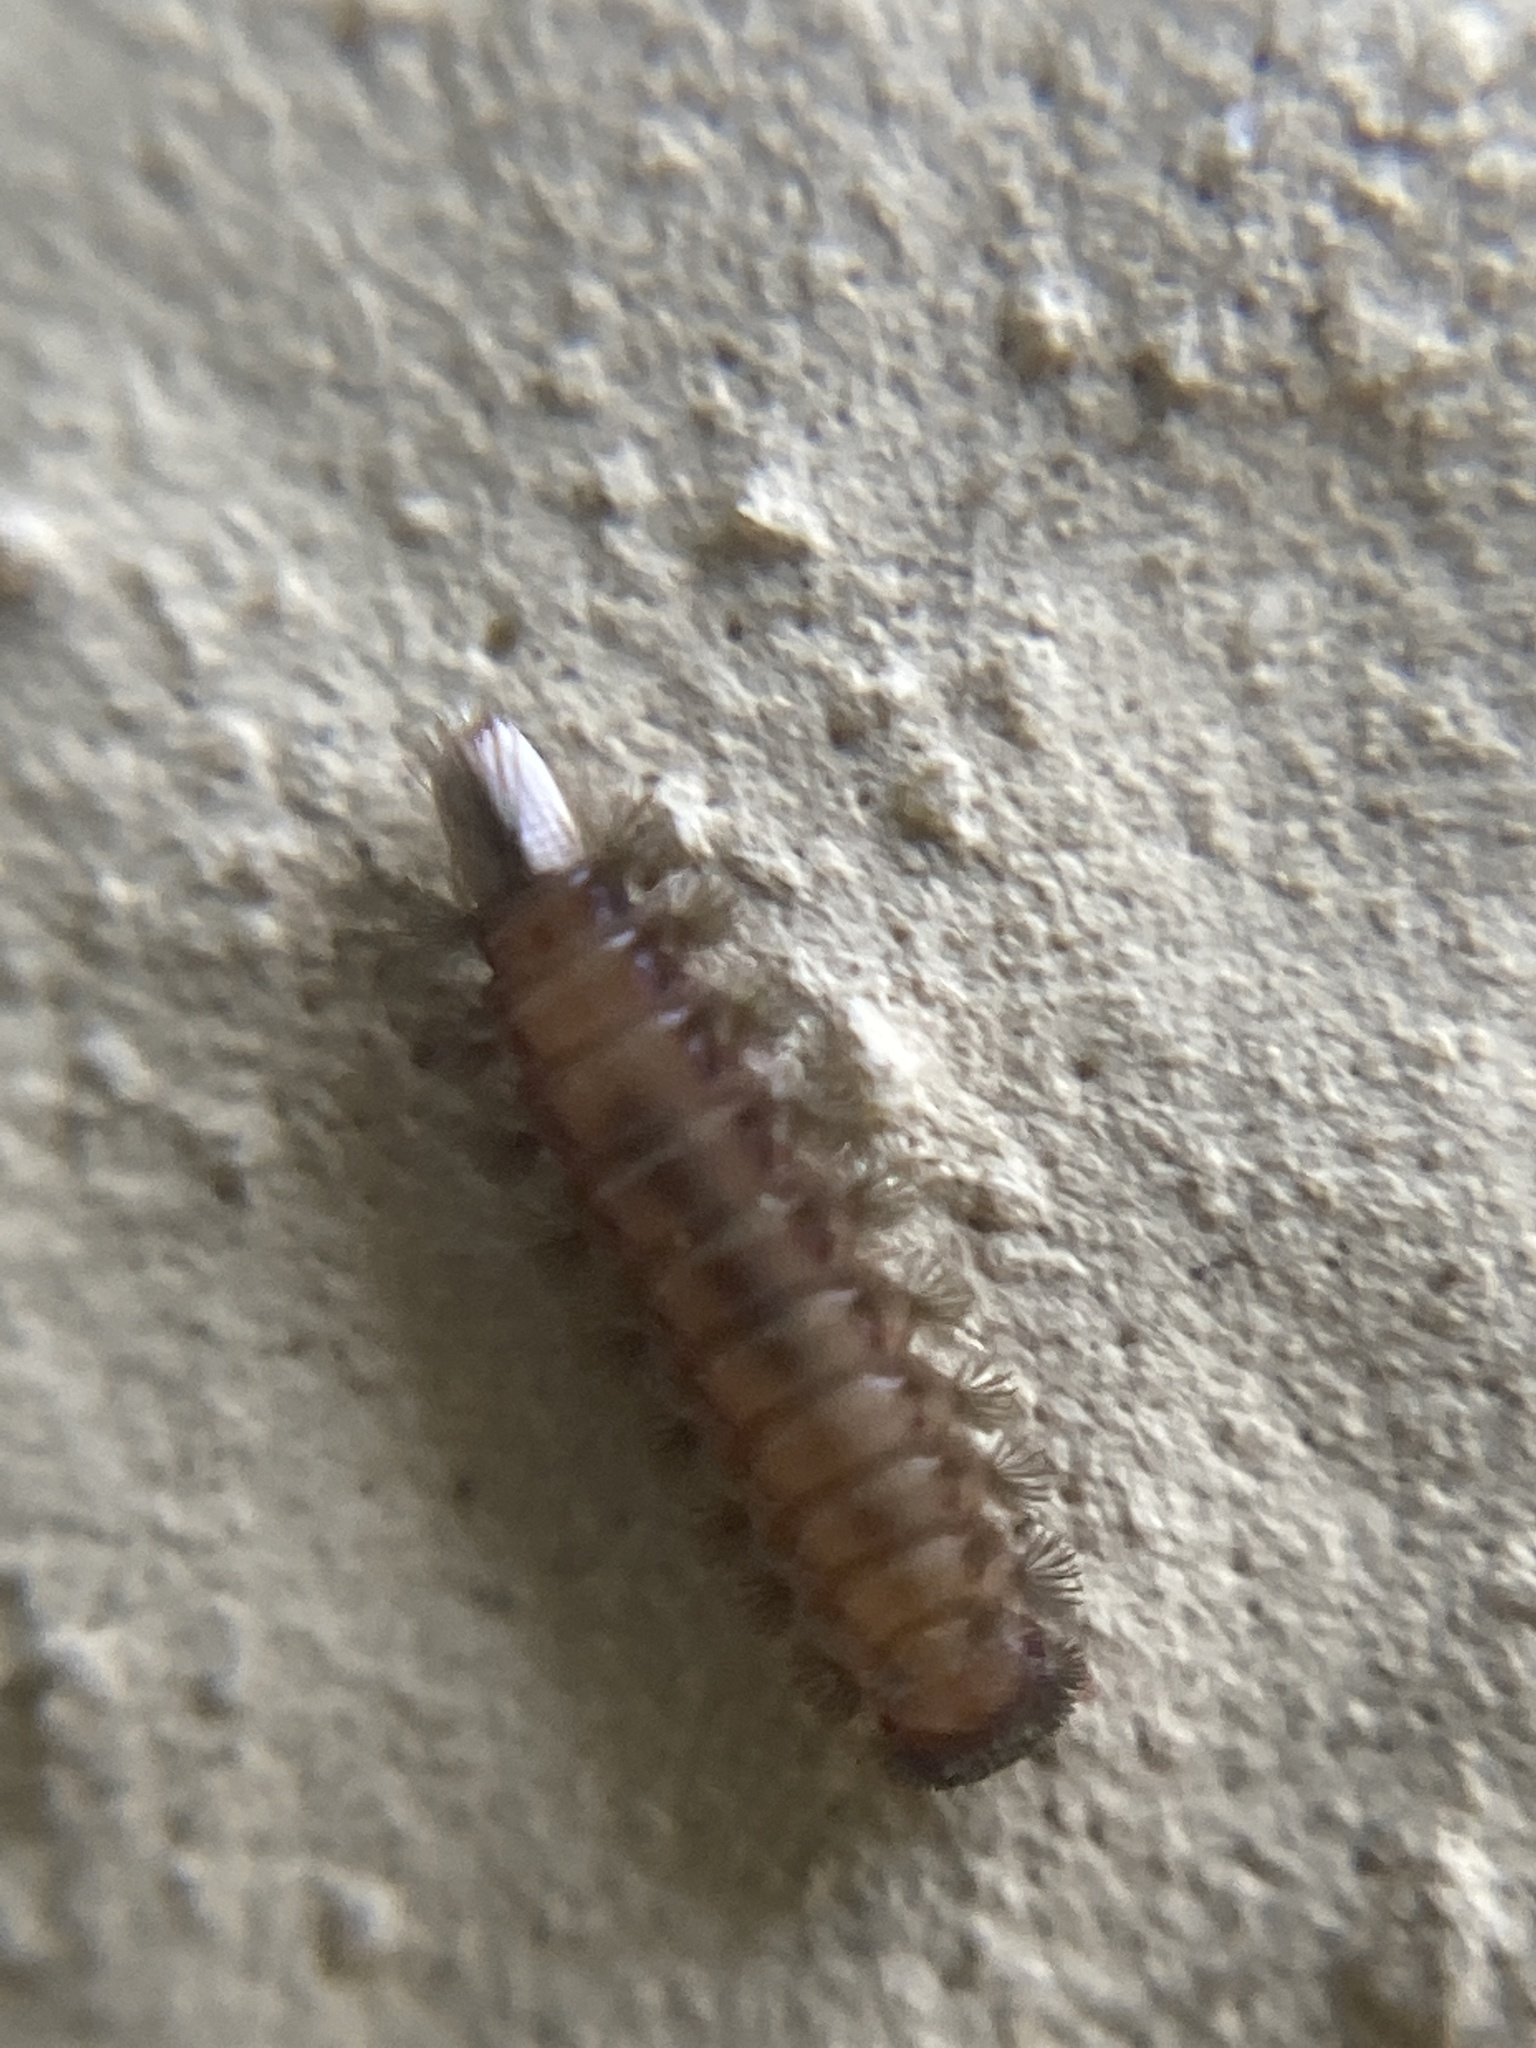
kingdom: Animalia
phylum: Arthropoda
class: Diplopoda
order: Polyxenida
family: Polyxenidae
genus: Polyxenus
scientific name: Polyxenus lagurus
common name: Bristly millipede
